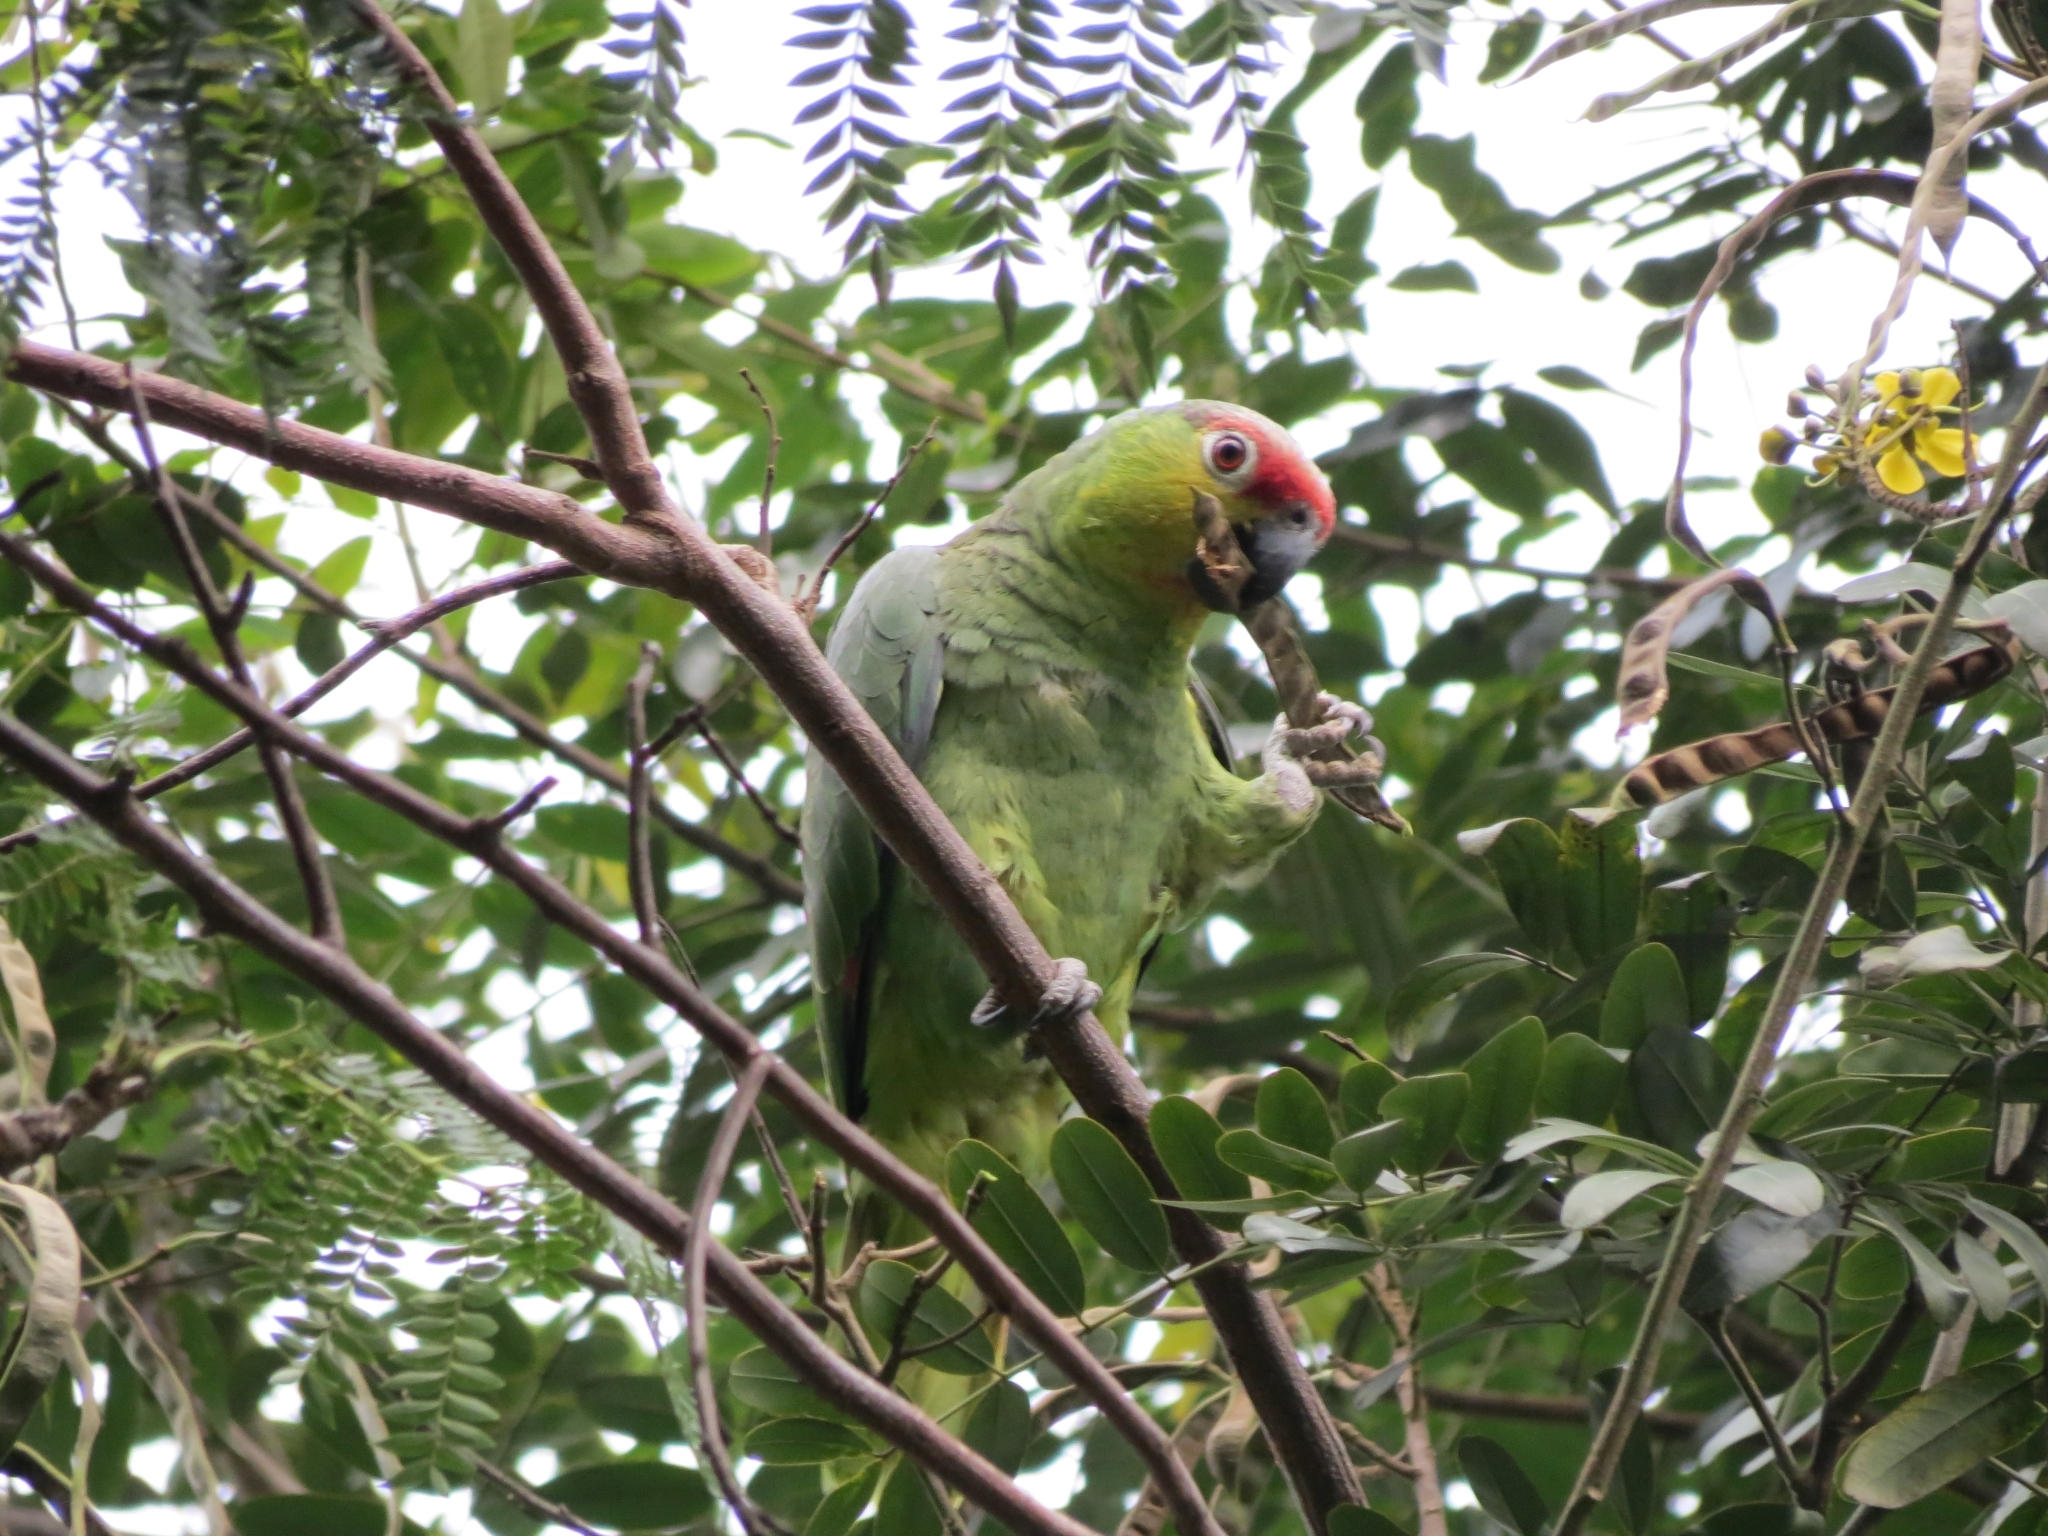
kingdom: Animalia
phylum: Chordata
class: Aves
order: Psittaciformes
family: Psittacidae
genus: Amazona
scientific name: Amazona autumnalis
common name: Red-lored amazon
